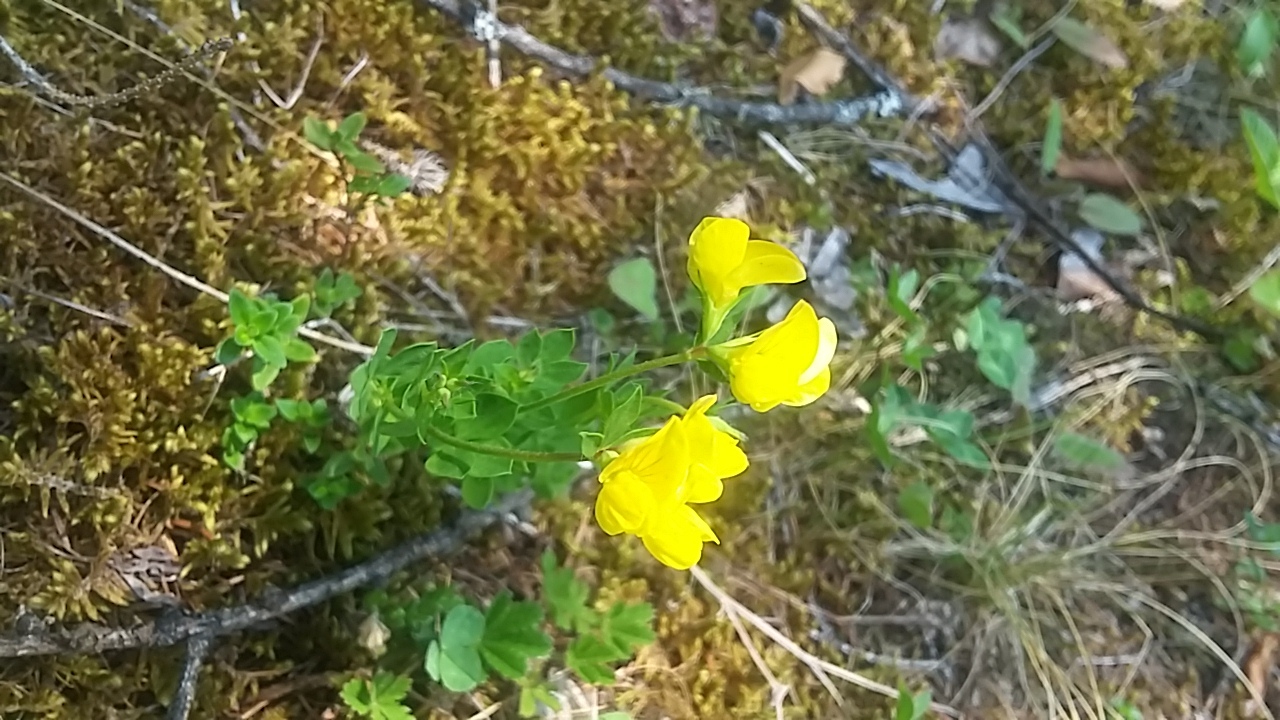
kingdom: Plantae
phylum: Tracheophyta
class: Magnoliopsida
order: Fabales
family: Fabaceae
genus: Lotus
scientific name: Lotus corniculatus
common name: Common bird's-foot-trefoil
